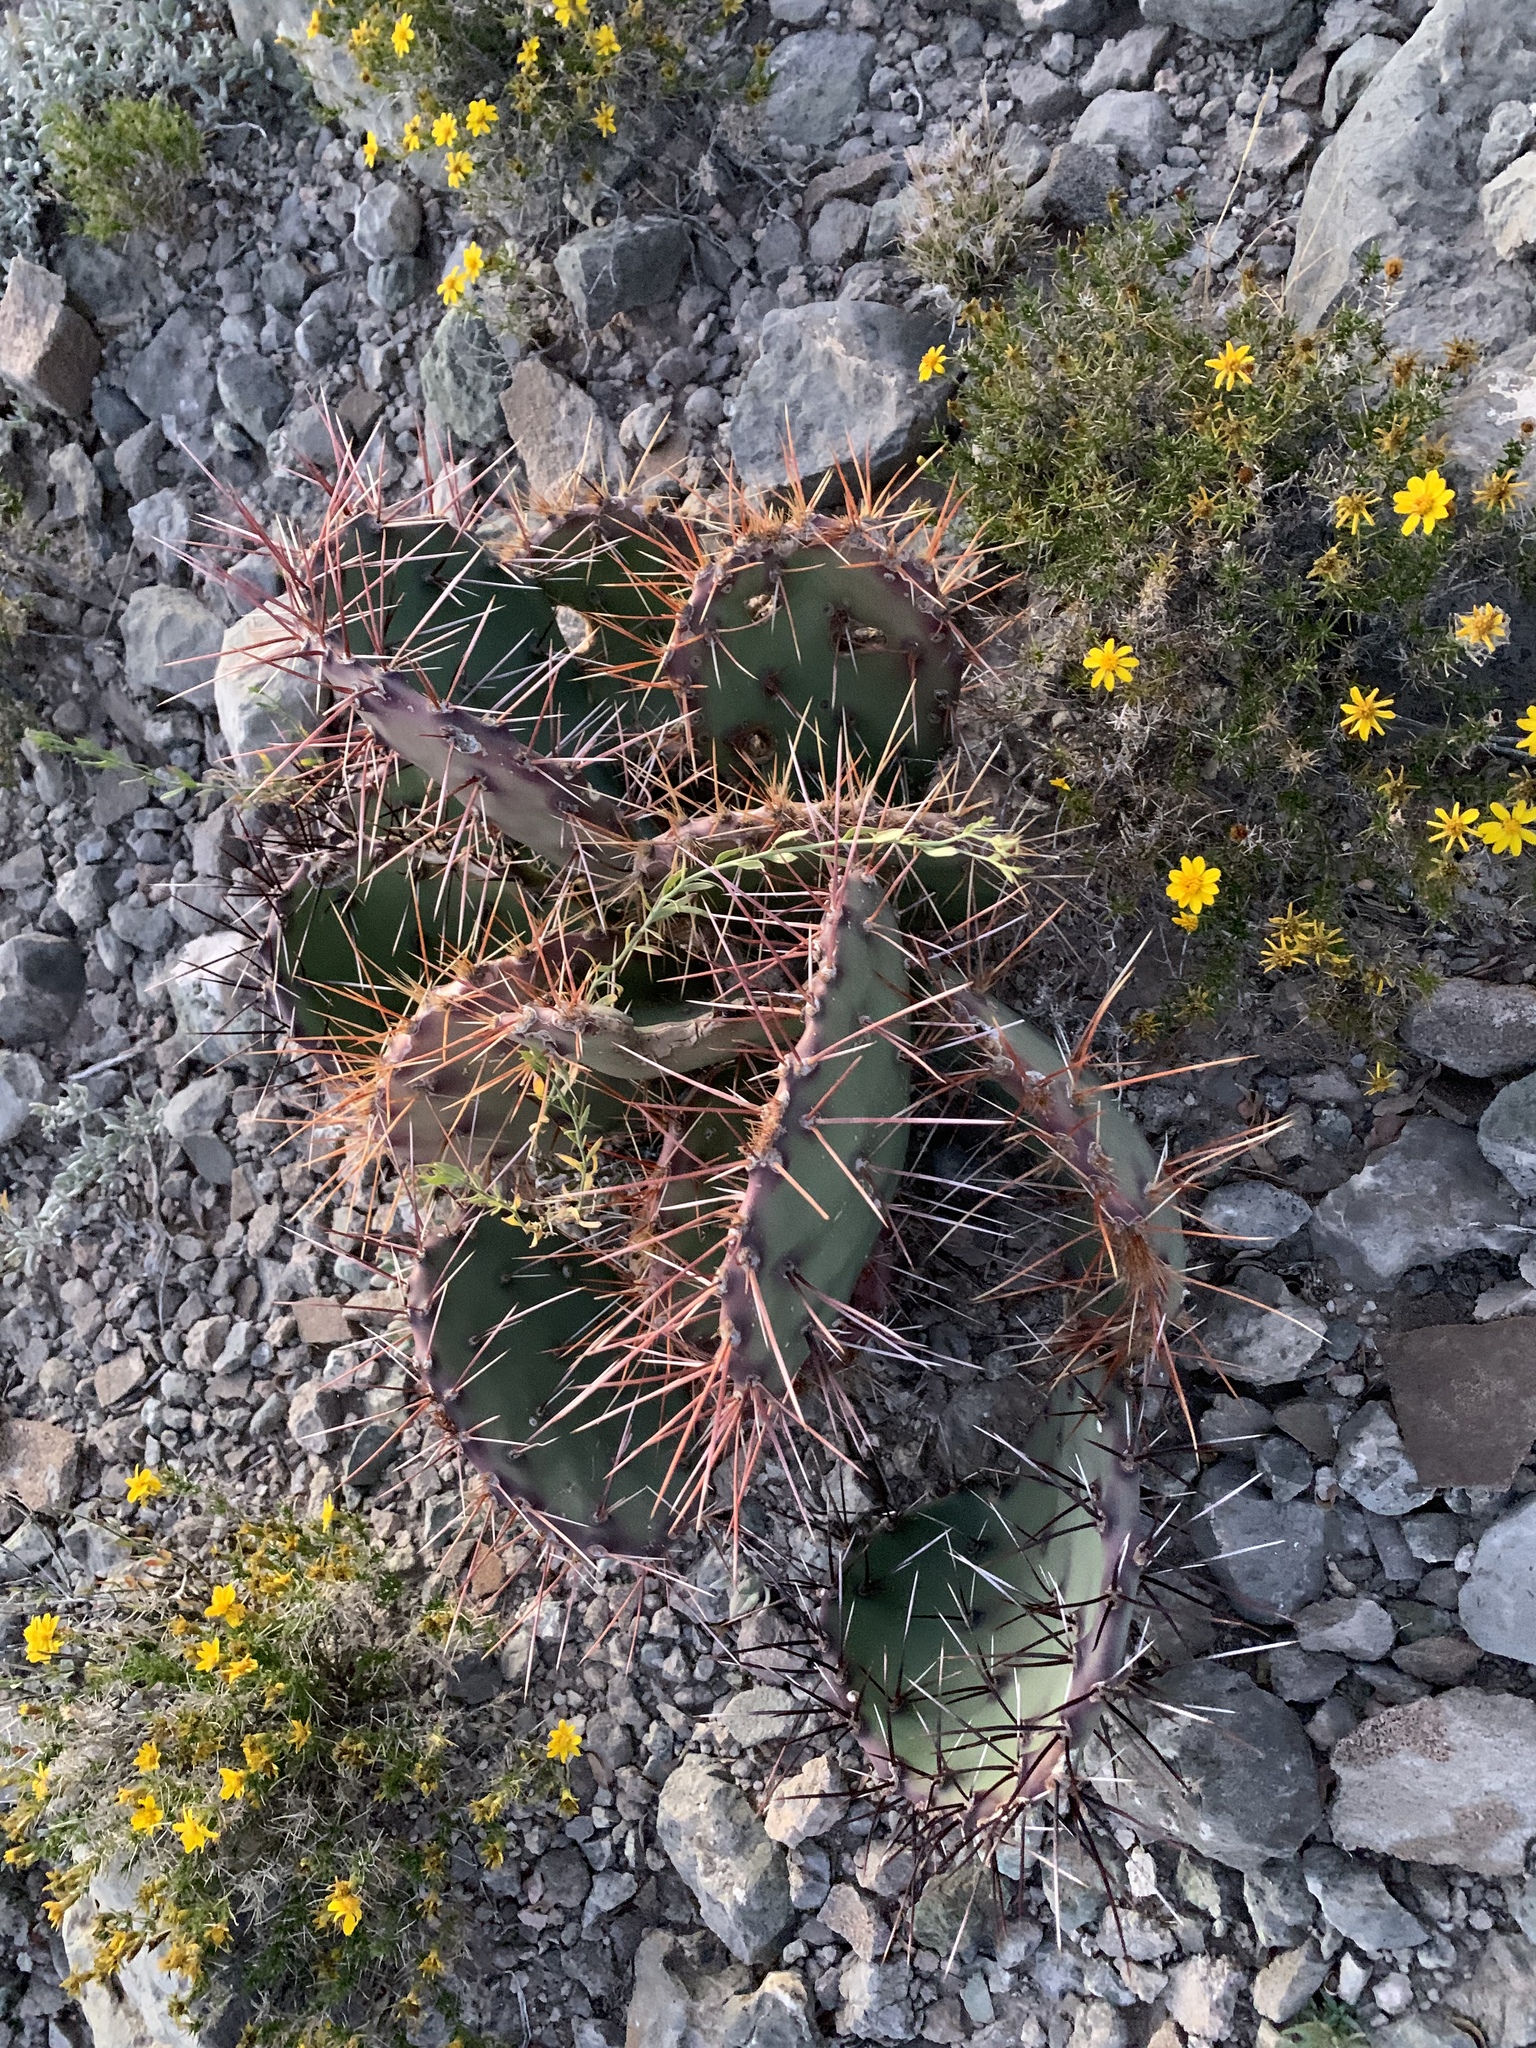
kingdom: Plantae
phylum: Tracheophyta
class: Magnoliopsida
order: Caryophyllales
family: Cactaceae
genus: Opuntia
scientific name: Opuntia macrocentra
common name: Purple prickly-pear
